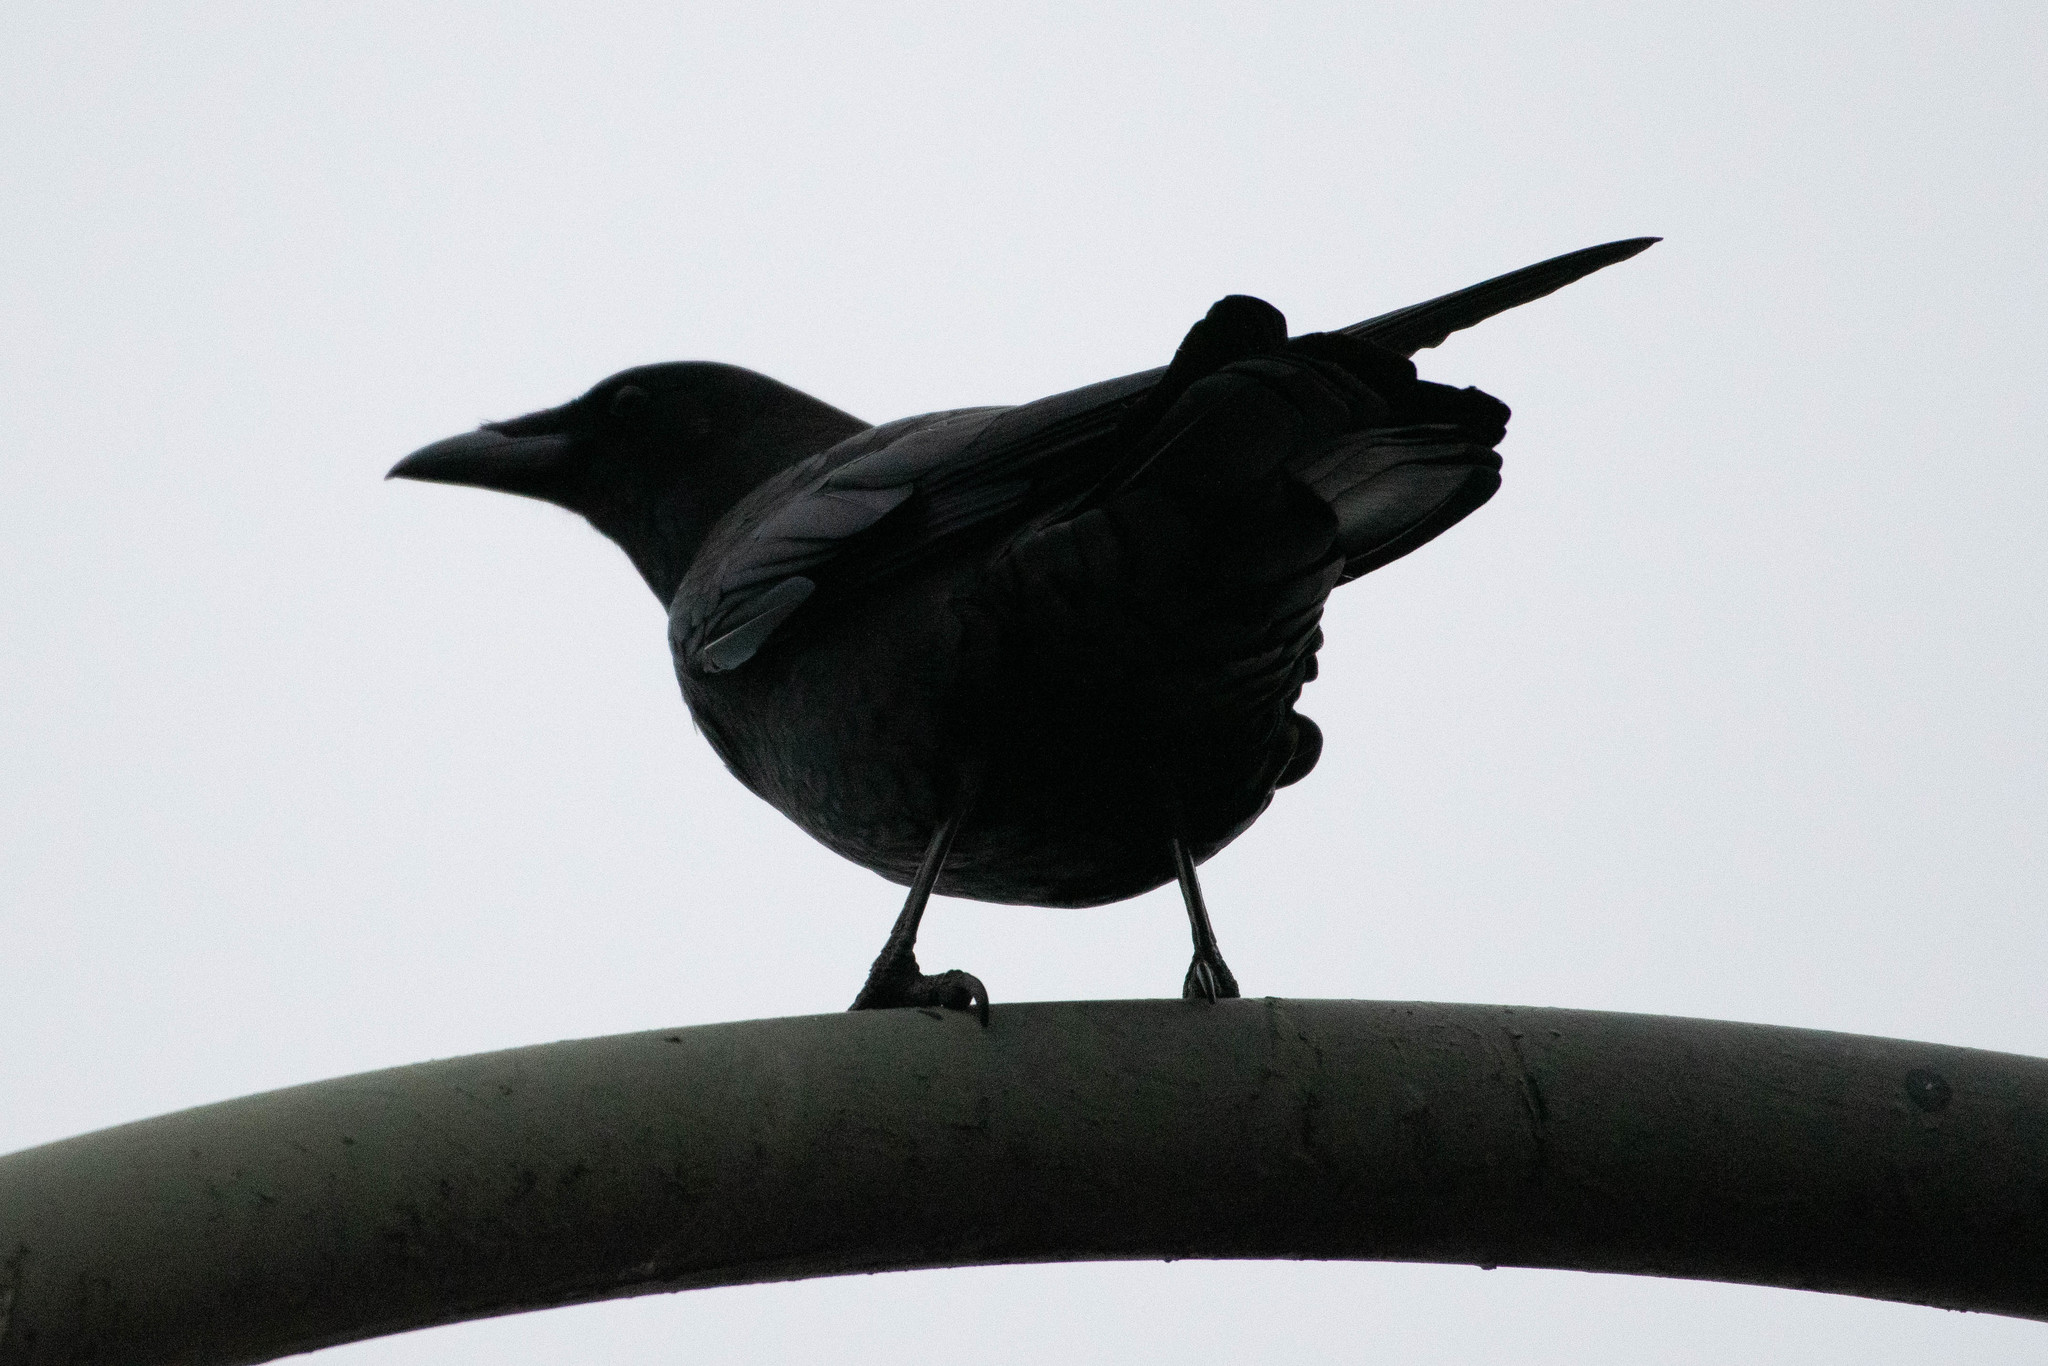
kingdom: Animalia
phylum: Chordata
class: Aves
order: Passeriformes
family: Corvidae
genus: Corvus
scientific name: Corvus brachyrhynchos
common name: American crow
